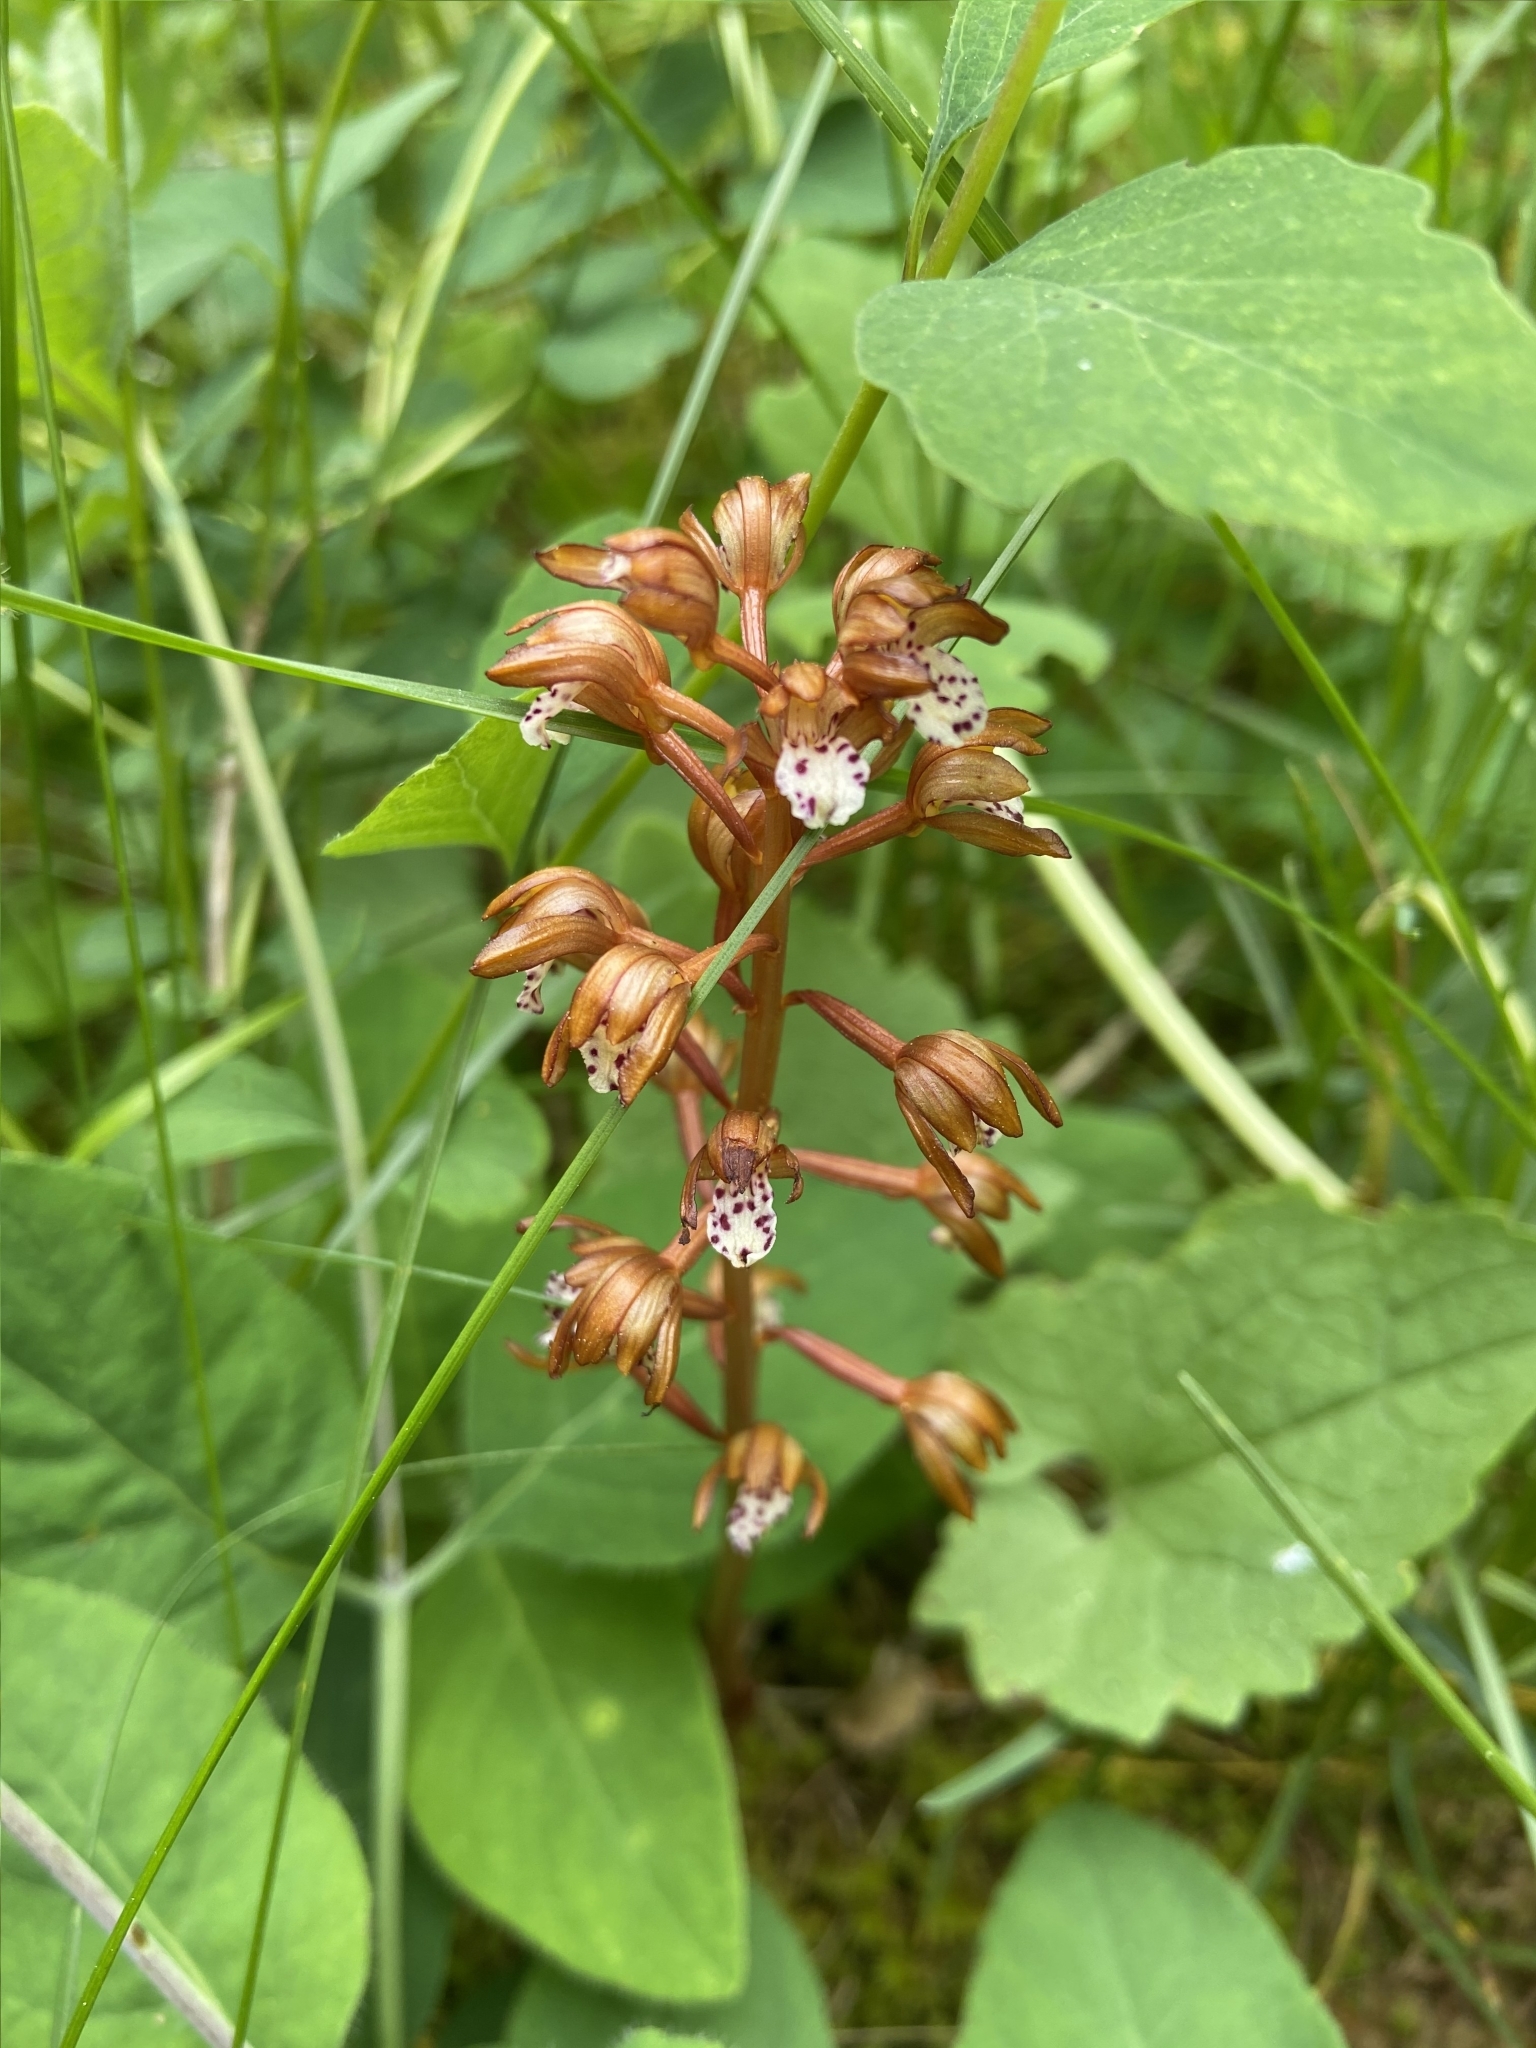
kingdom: Plantae
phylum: Tracheophyta
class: Liliopsida
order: Asparagales
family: Orchidaceae
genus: Corallorhiza
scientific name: Corallorhiza maculata
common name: Spotted coralroot
